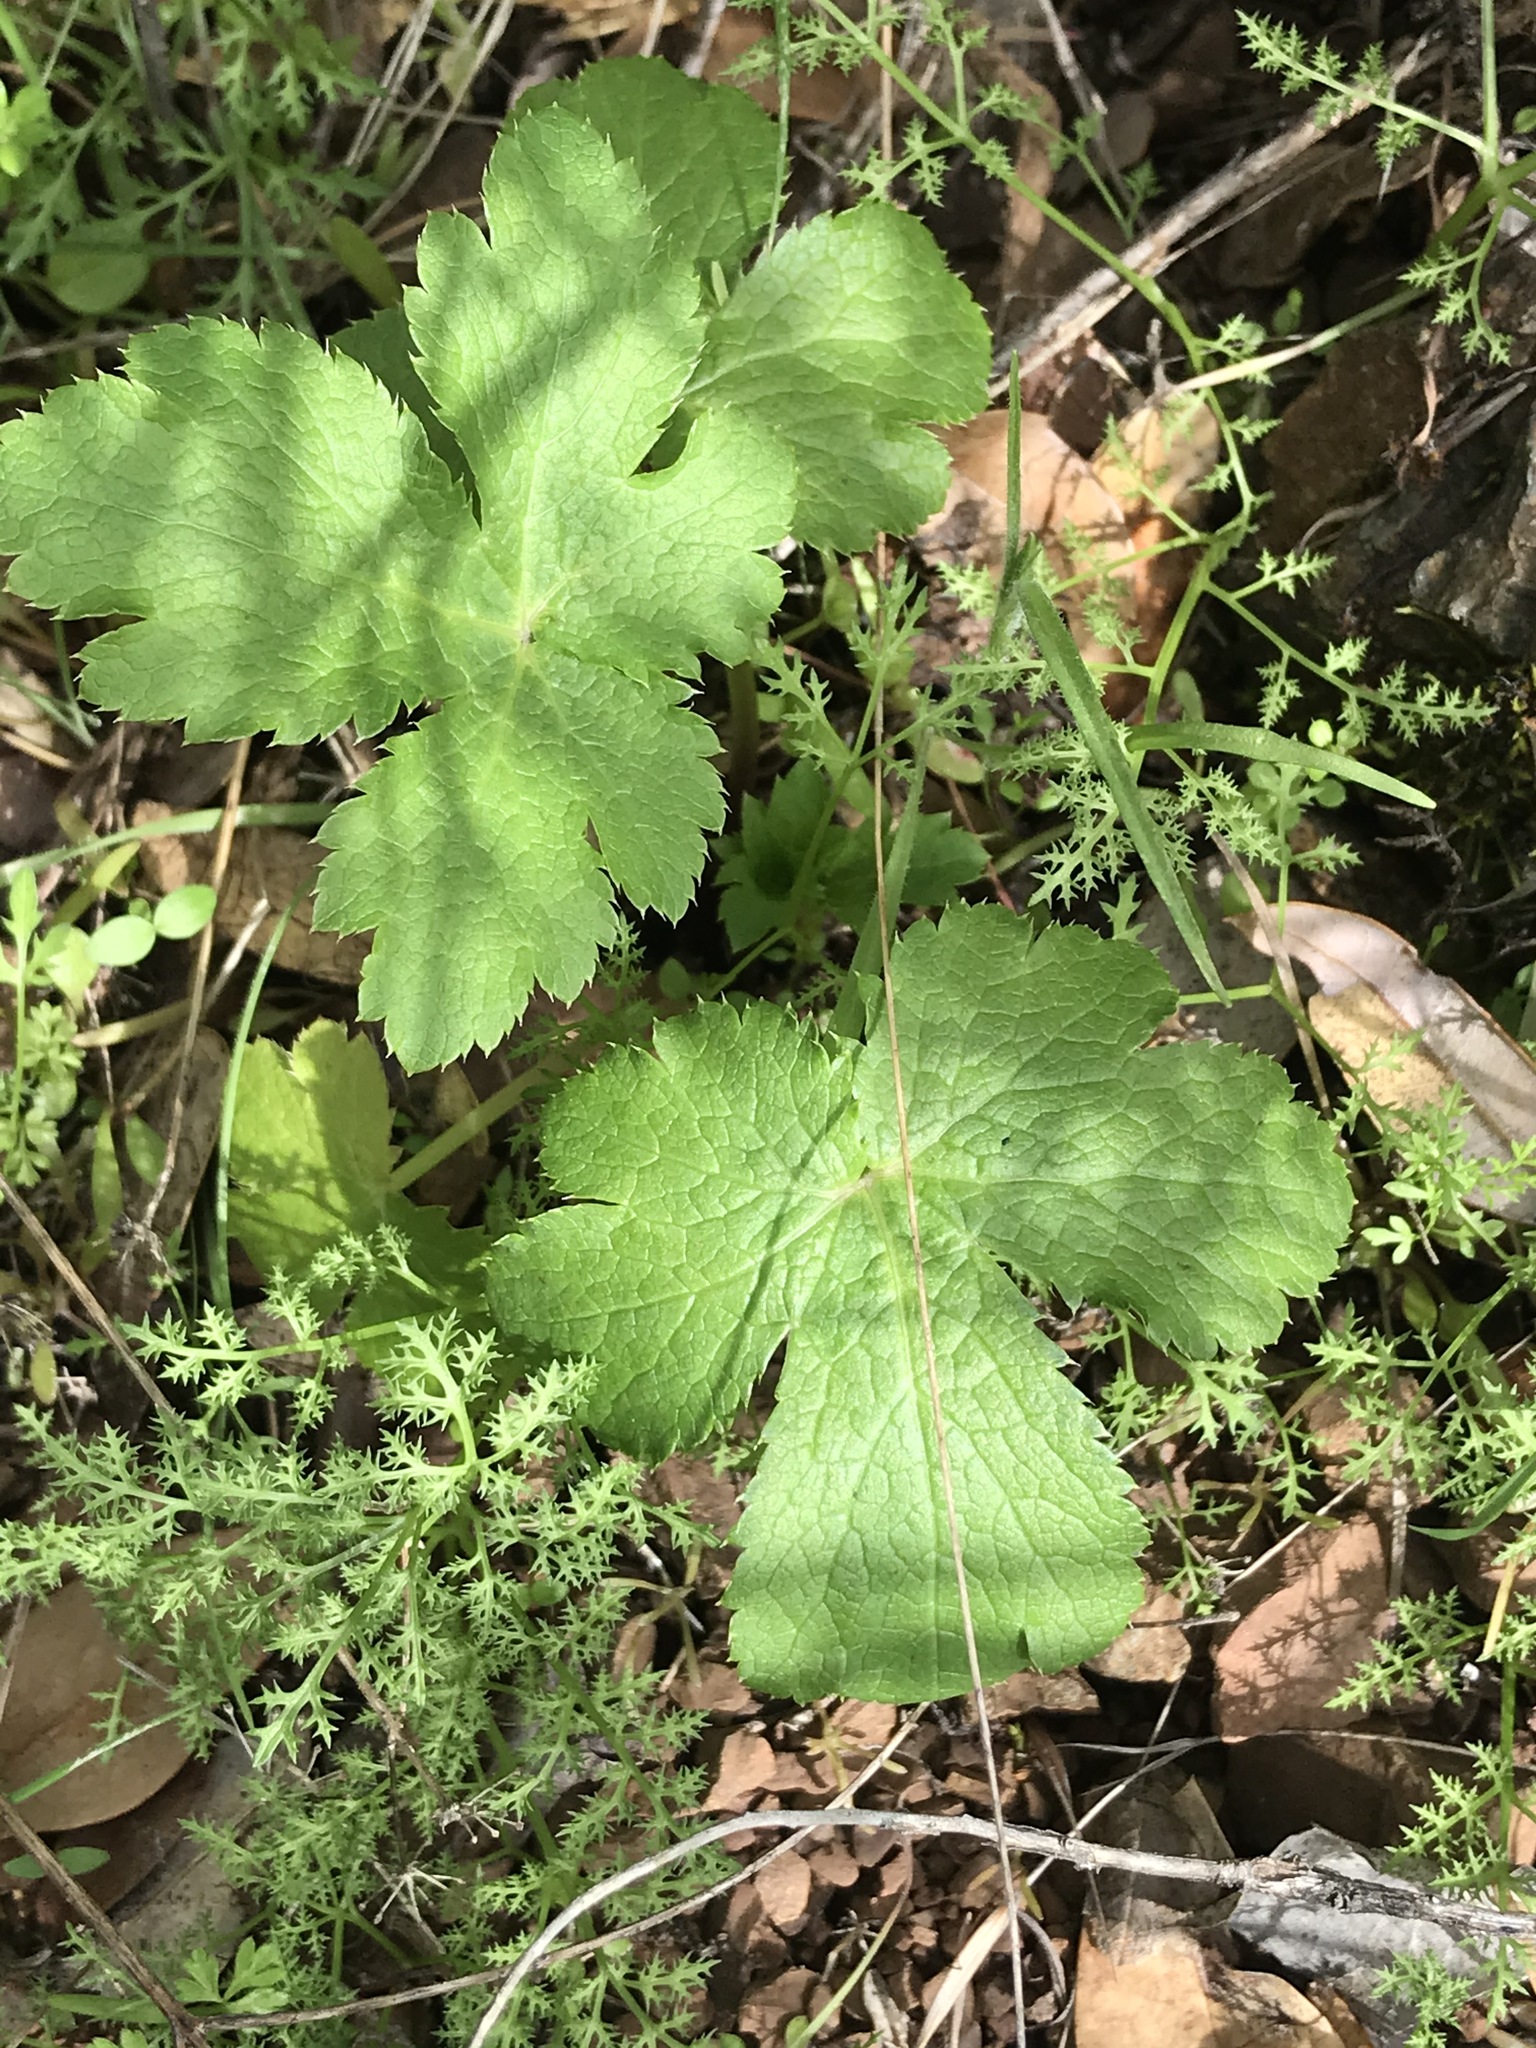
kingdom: Plantae
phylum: Tracheophyta
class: Magnoliopsida
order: Apiales
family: Apiaceae
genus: Sanicula
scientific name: Sanicula crassicaulis
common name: Western snakeroot
